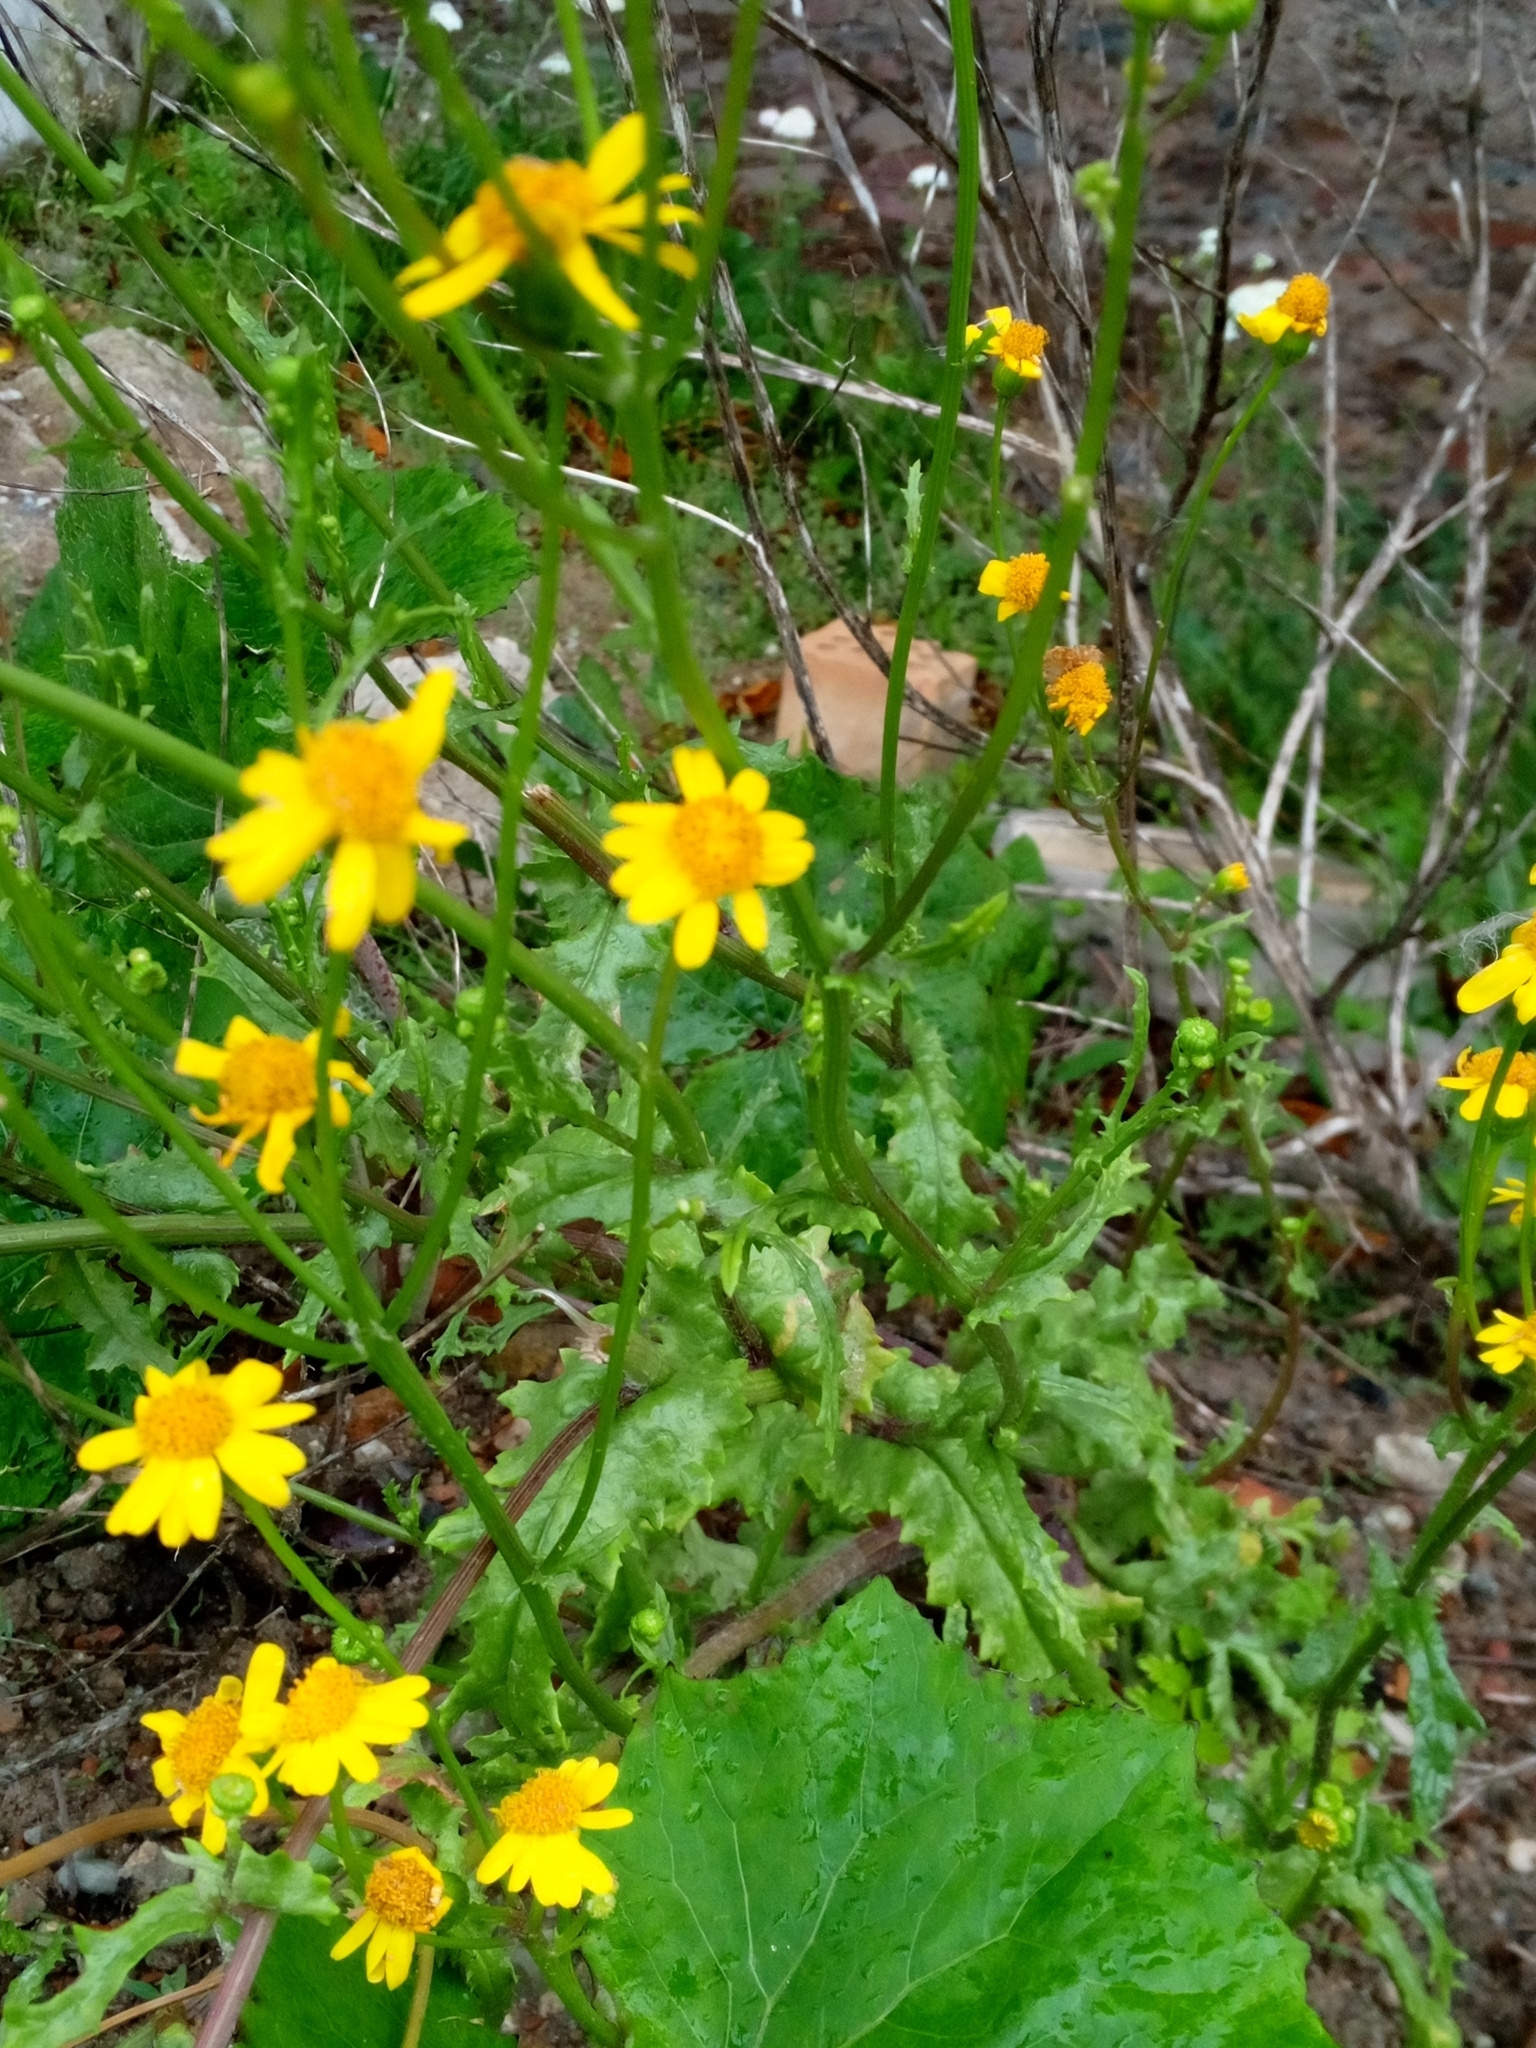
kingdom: Plantae
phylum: Tracheophyta
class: Magnoliopsida
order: Asterales
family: Asteraceae
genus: Cota
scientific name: Cota tinctoria
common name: Golden chamomile
